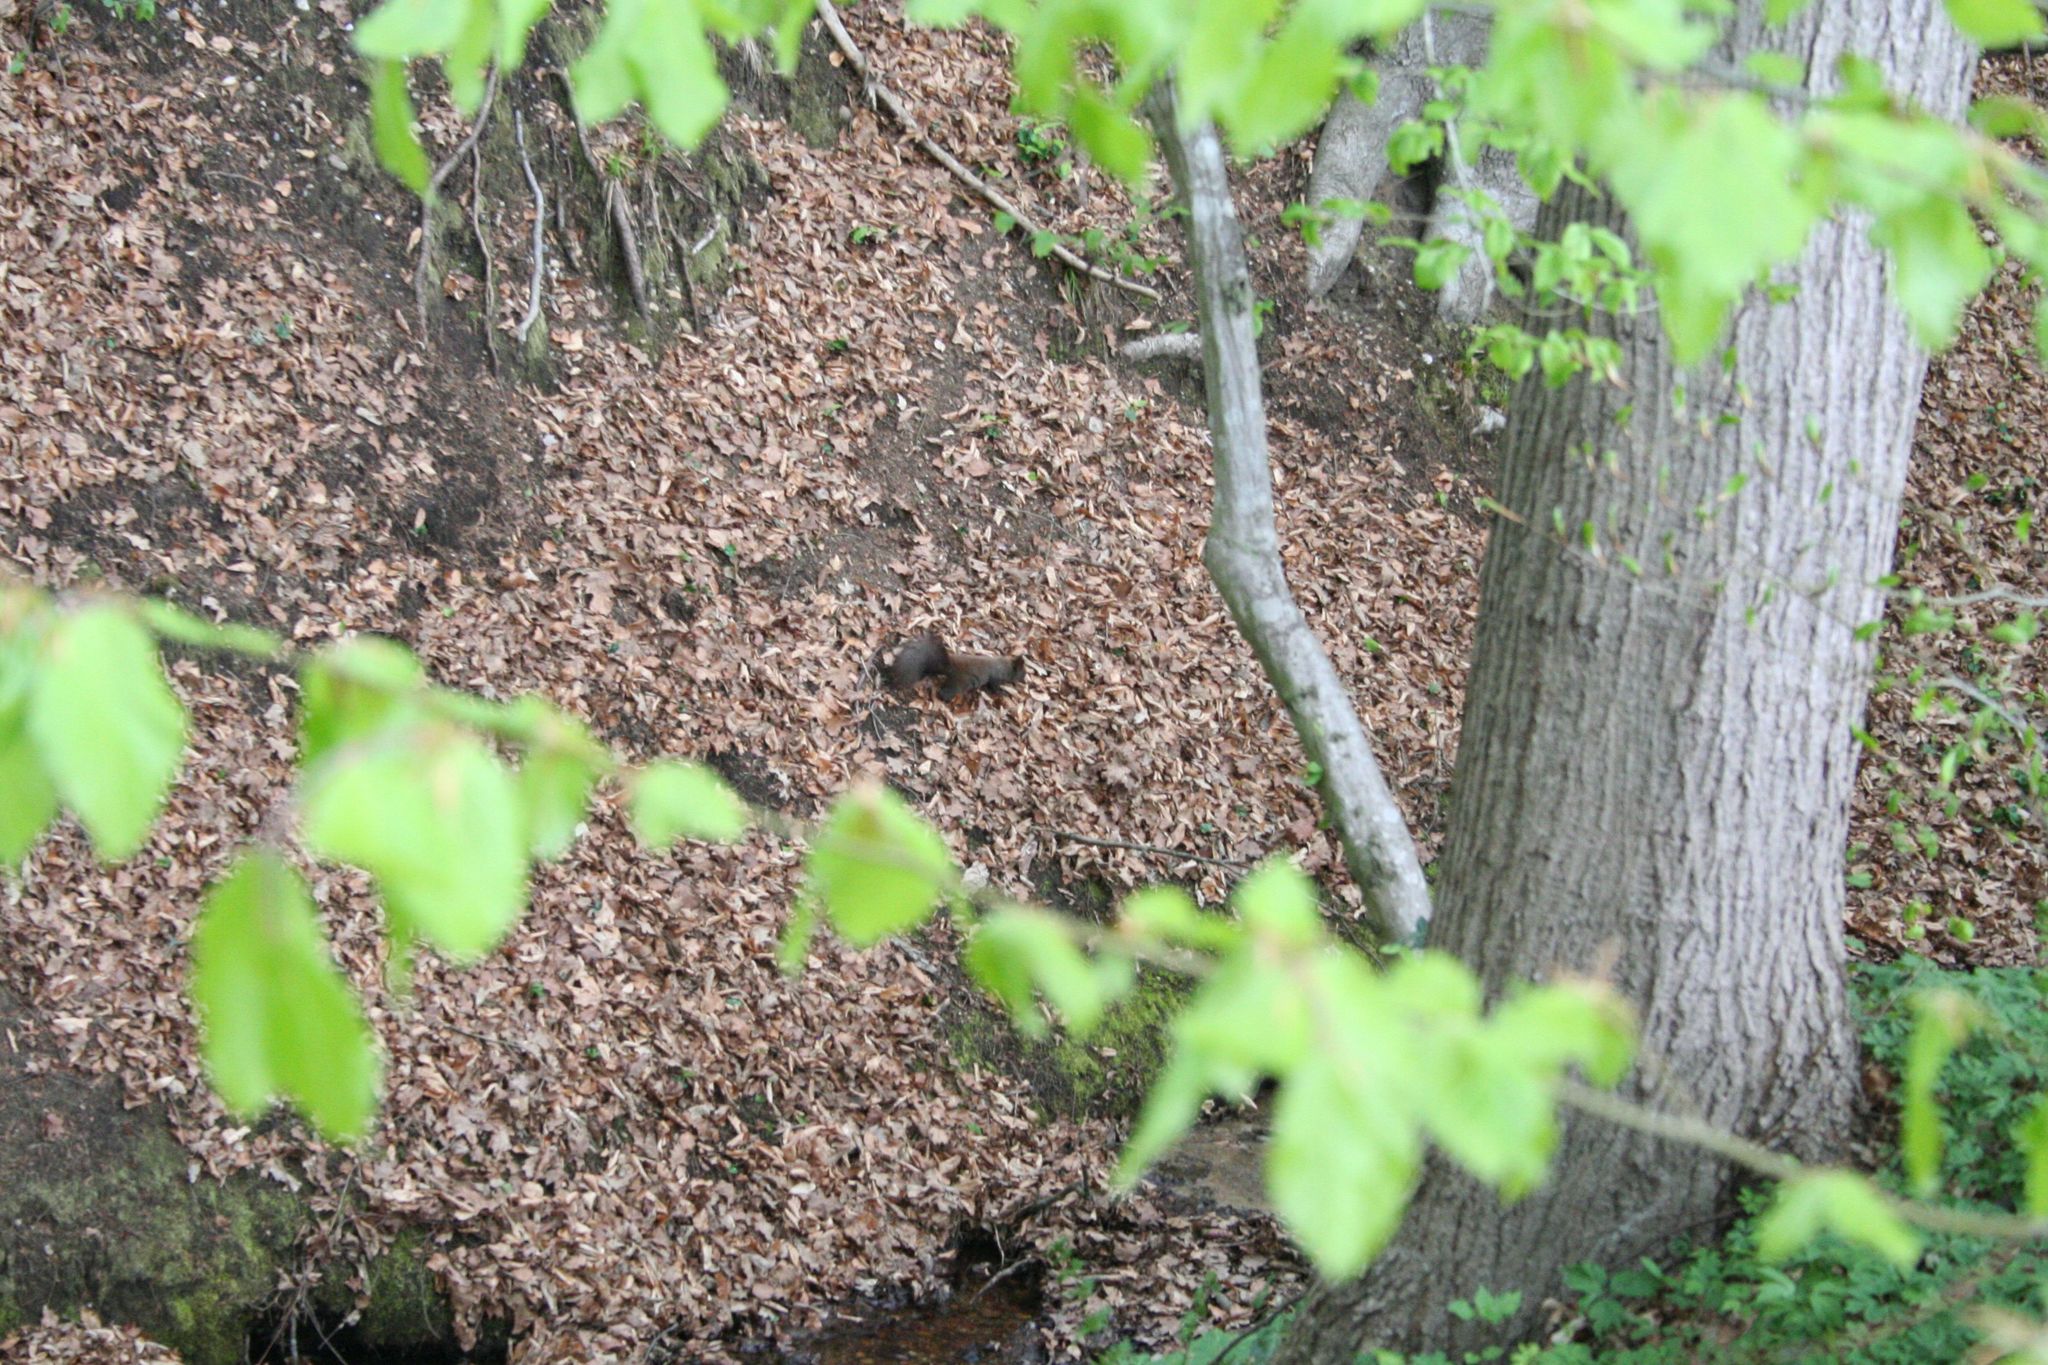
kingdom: Animalia
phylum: Chordata
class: Mammalia
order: Rodentia
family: Sciuridae
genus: Sciurus
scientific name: Sciurus vulgaris
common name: Eurasian red squirrel
